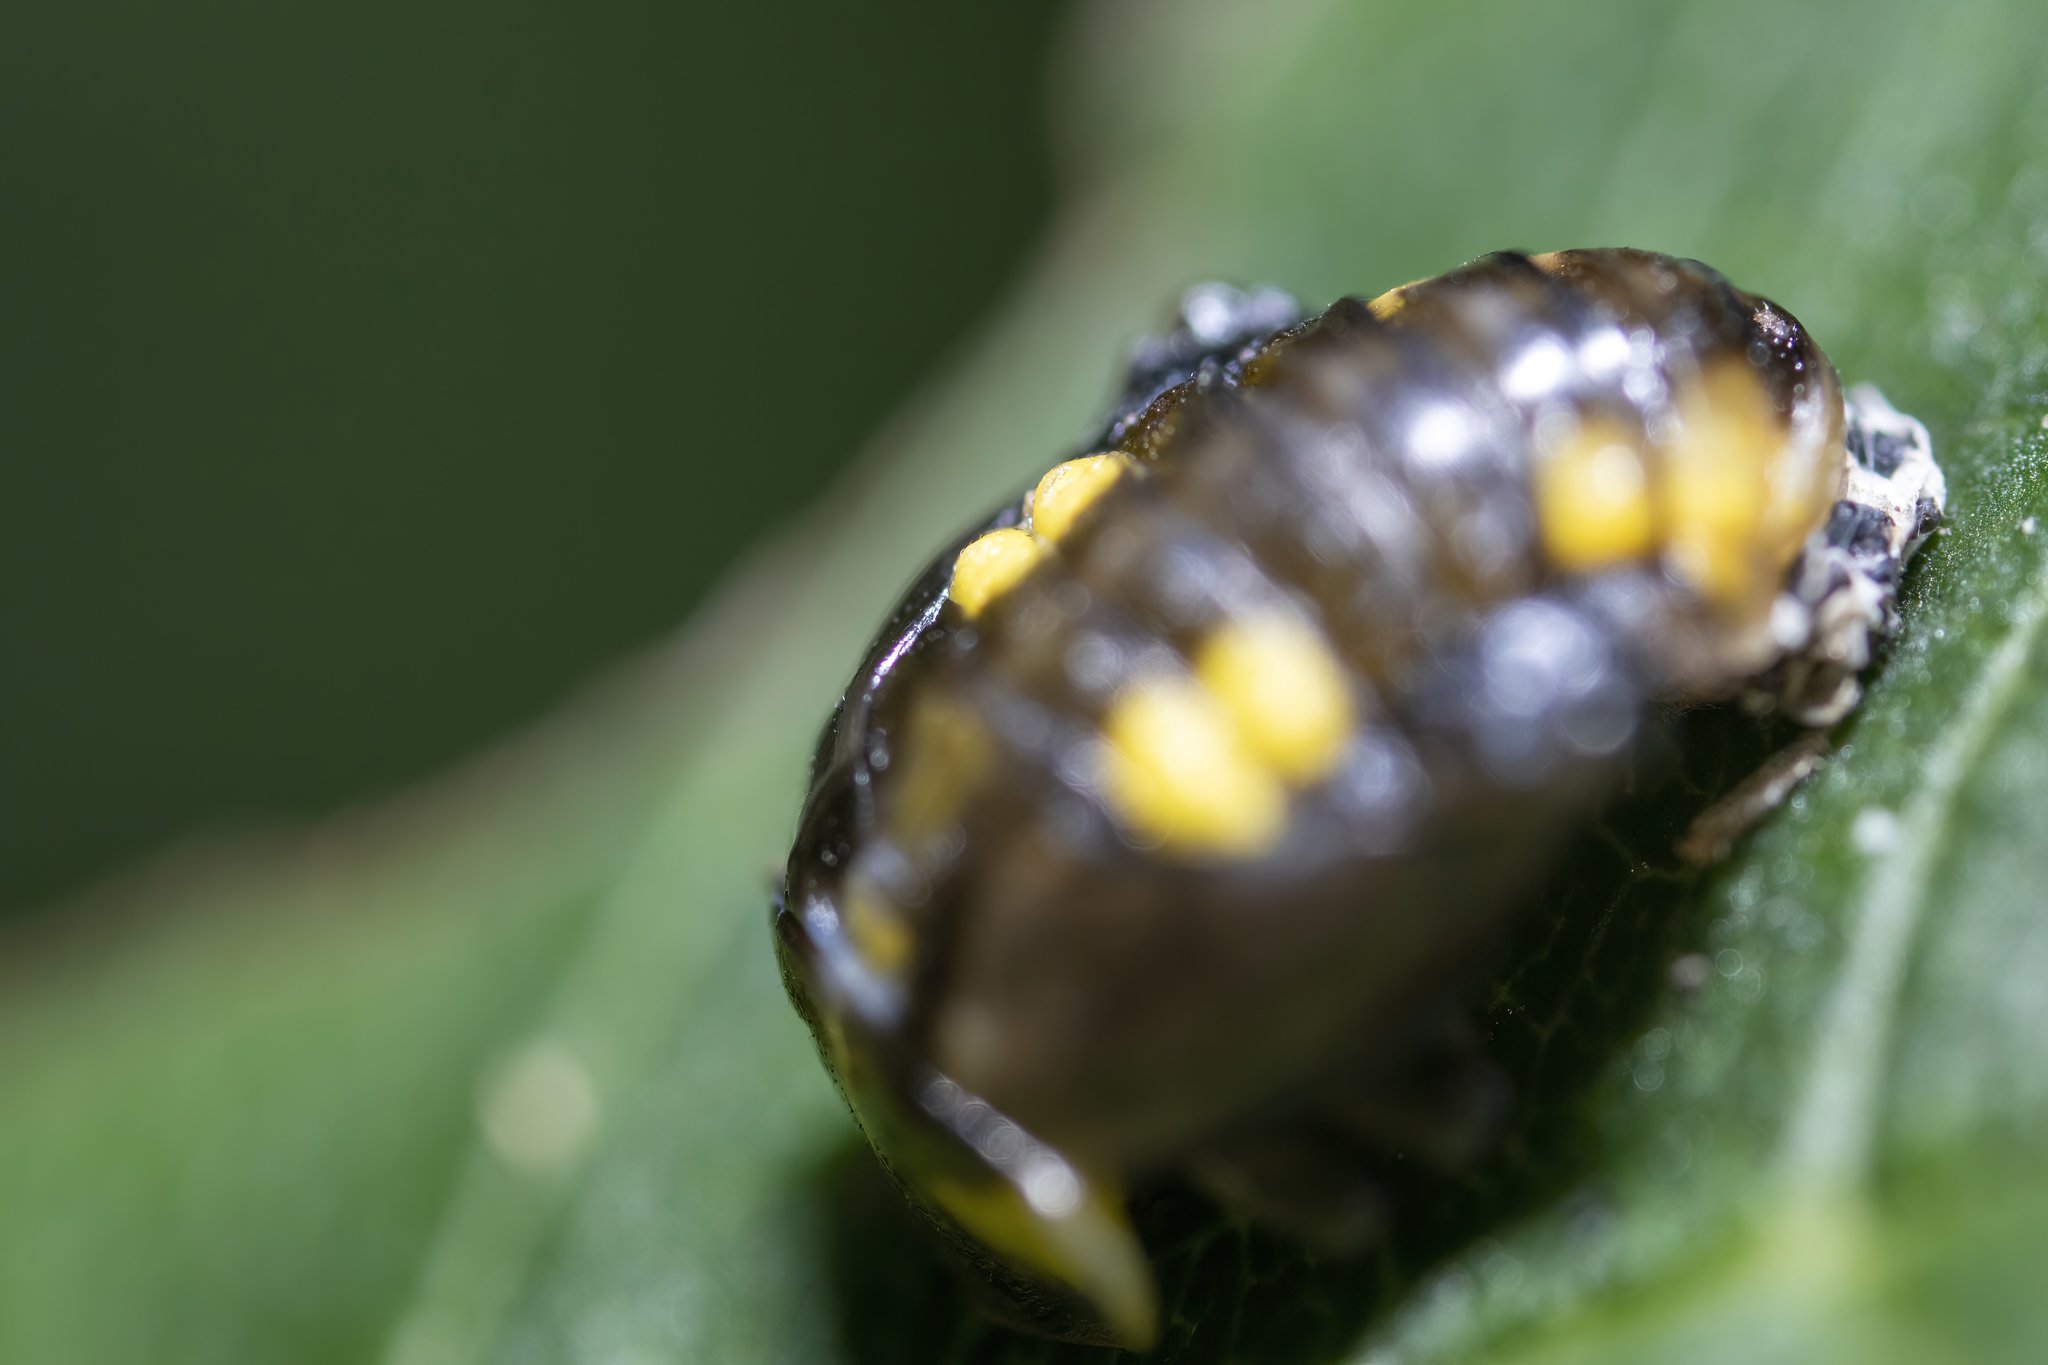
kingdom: Animalia
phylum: Arthropoda
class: Insecta
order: Coleoptera
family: Coccinellidae
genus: Halyzia
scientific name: Halyzia sedecimguttata
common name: Orange ladybird
